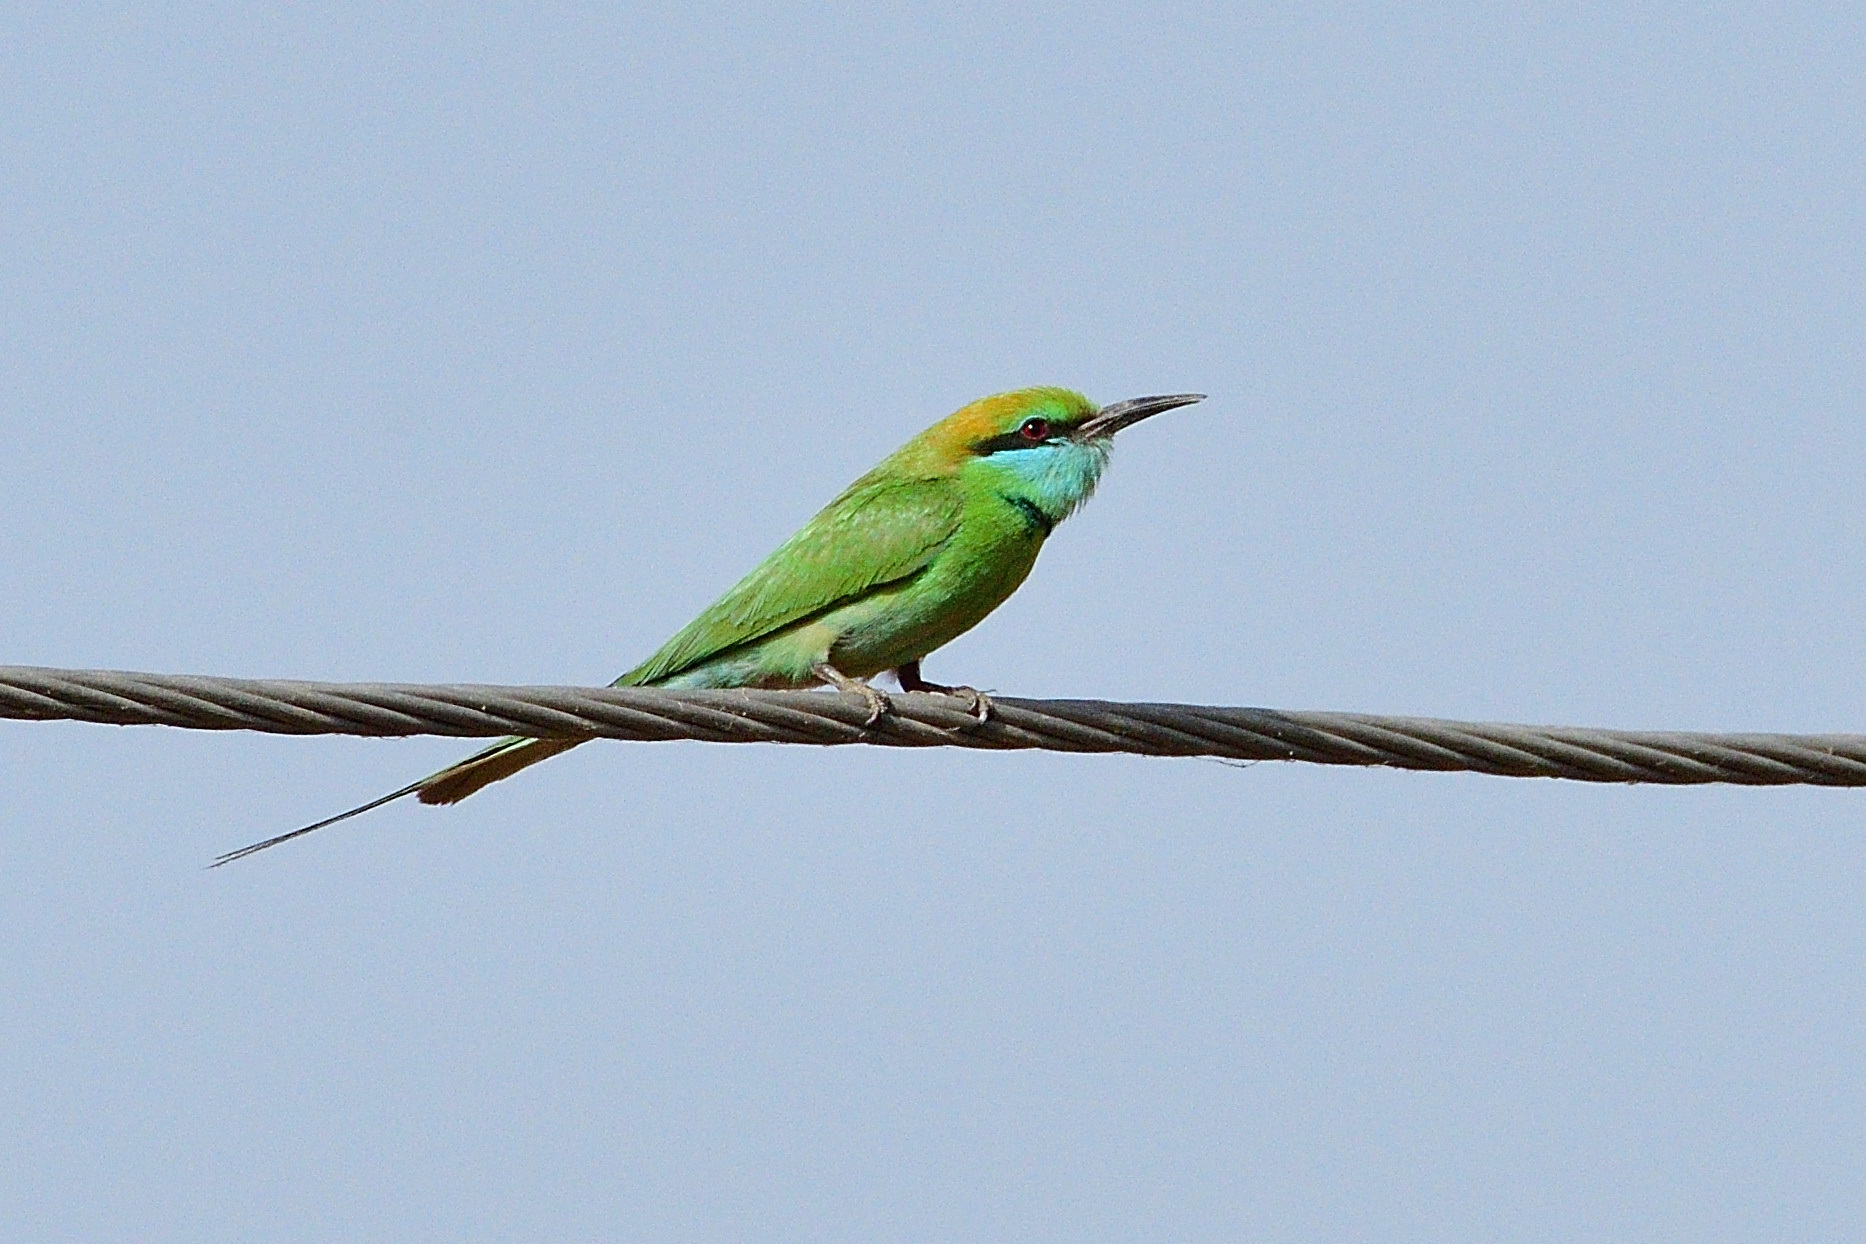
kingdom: Animalia
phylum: Chordata
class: Aves
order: Coraciiformes
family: Meropidae
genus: Merops
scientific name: Merops orientalis
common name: Green bee-eater
